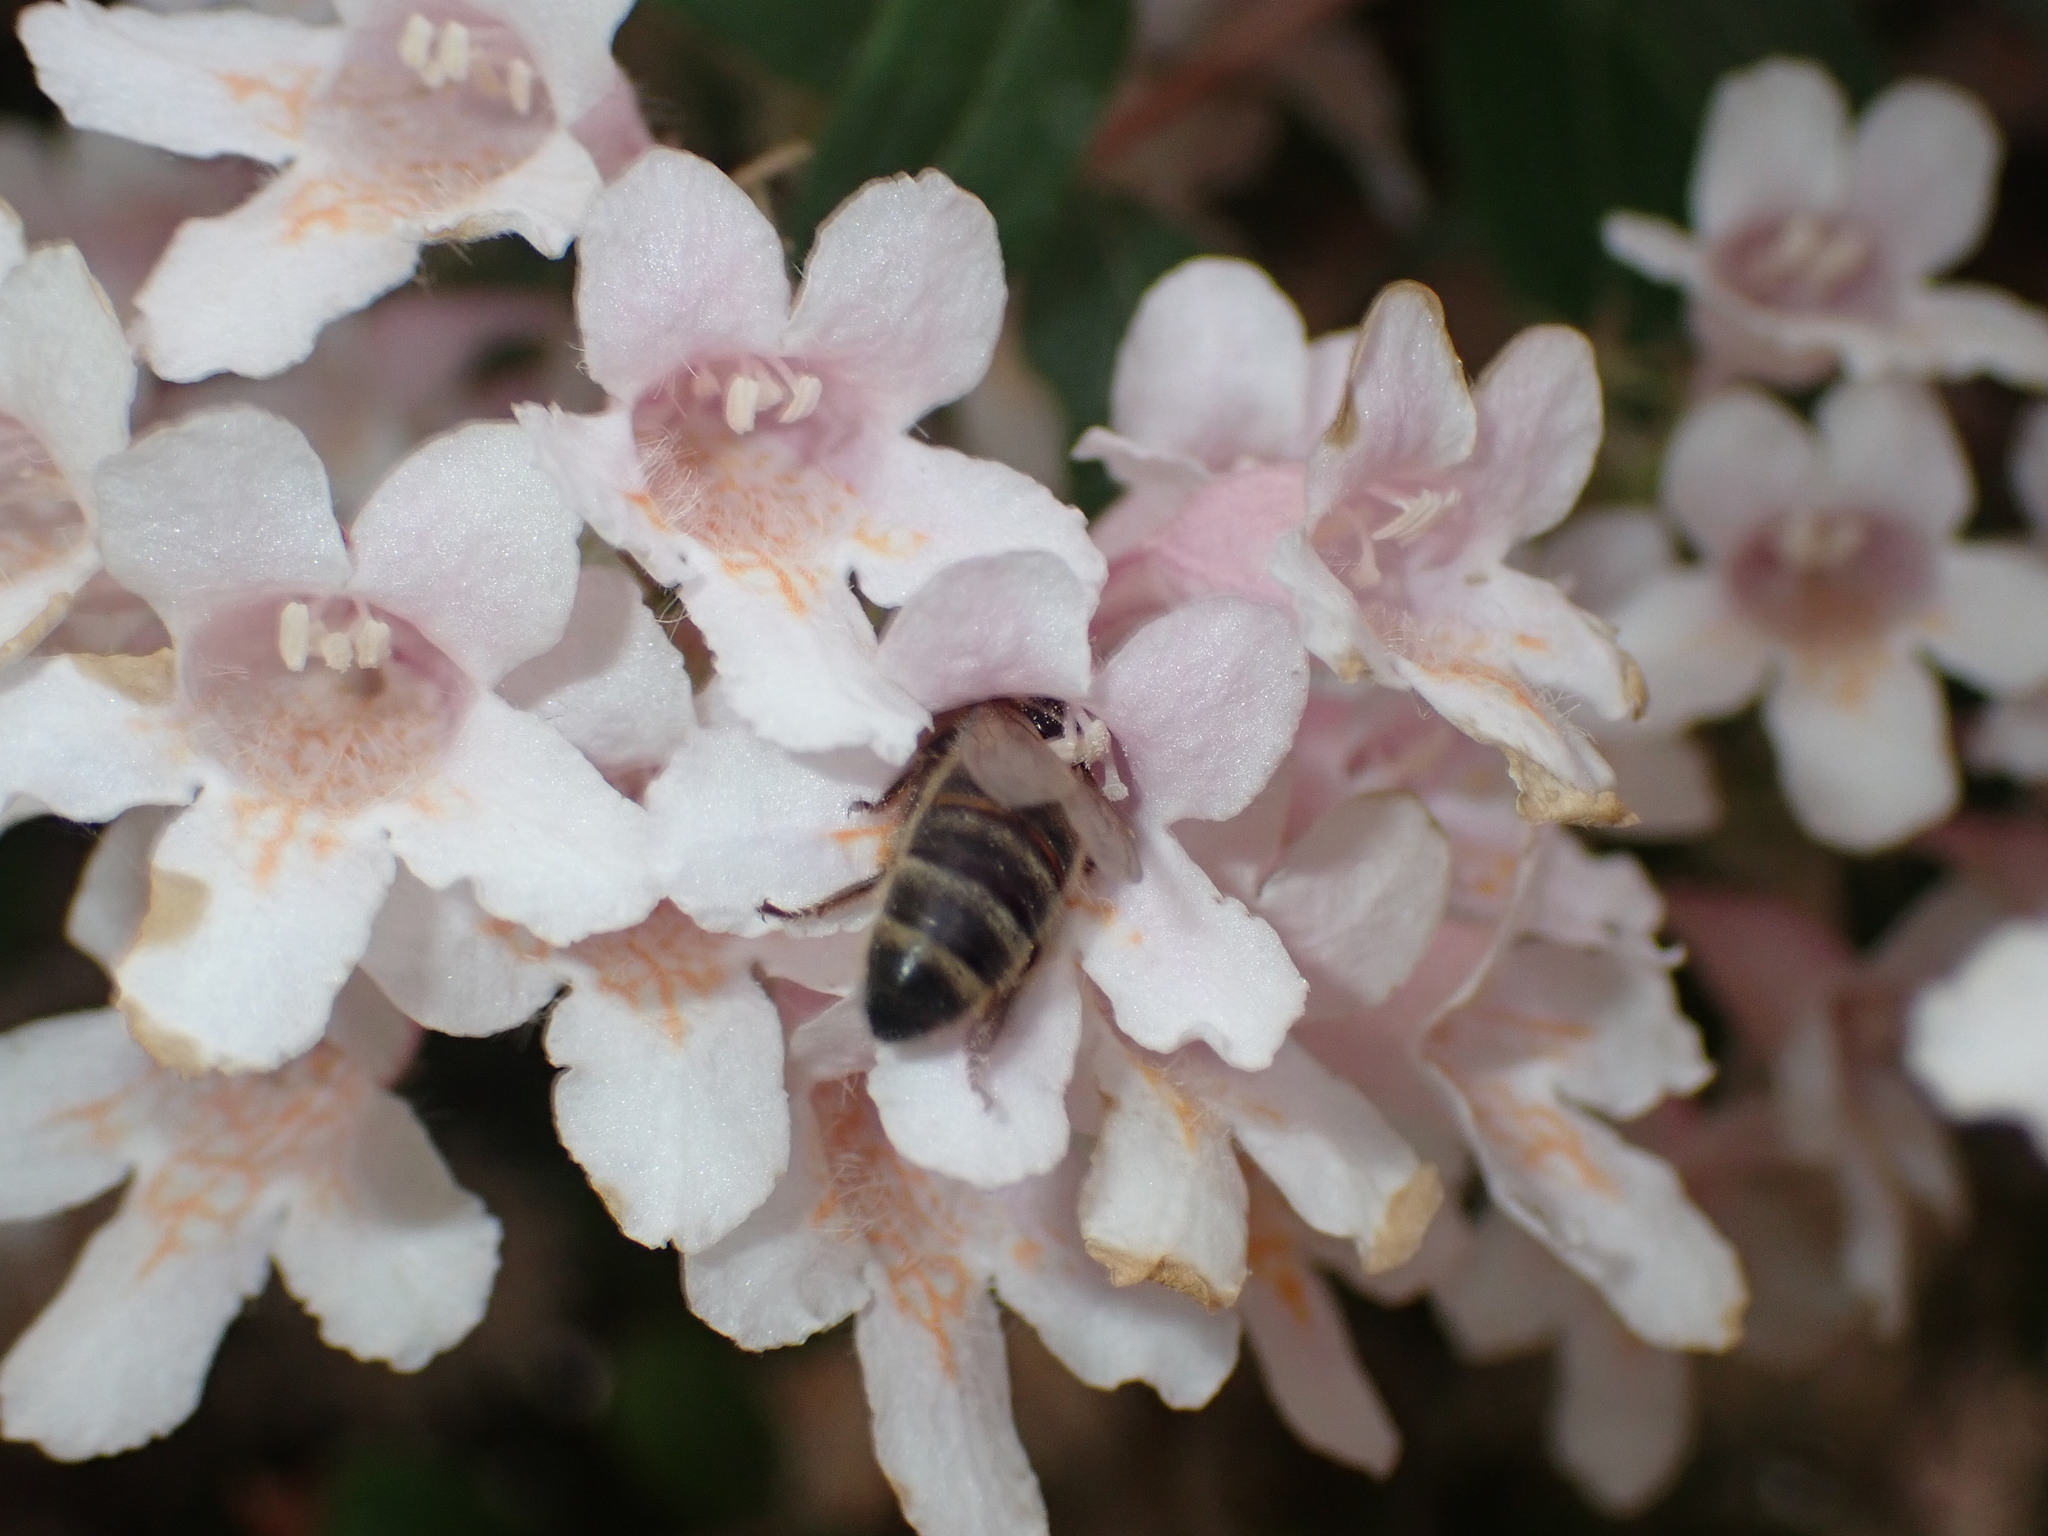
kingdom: Animalia
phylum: Arthropoda
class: Insecta
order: Hymenoptera
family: Apidae
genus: Apis
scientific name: Apis mellifera
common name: Honey bee
